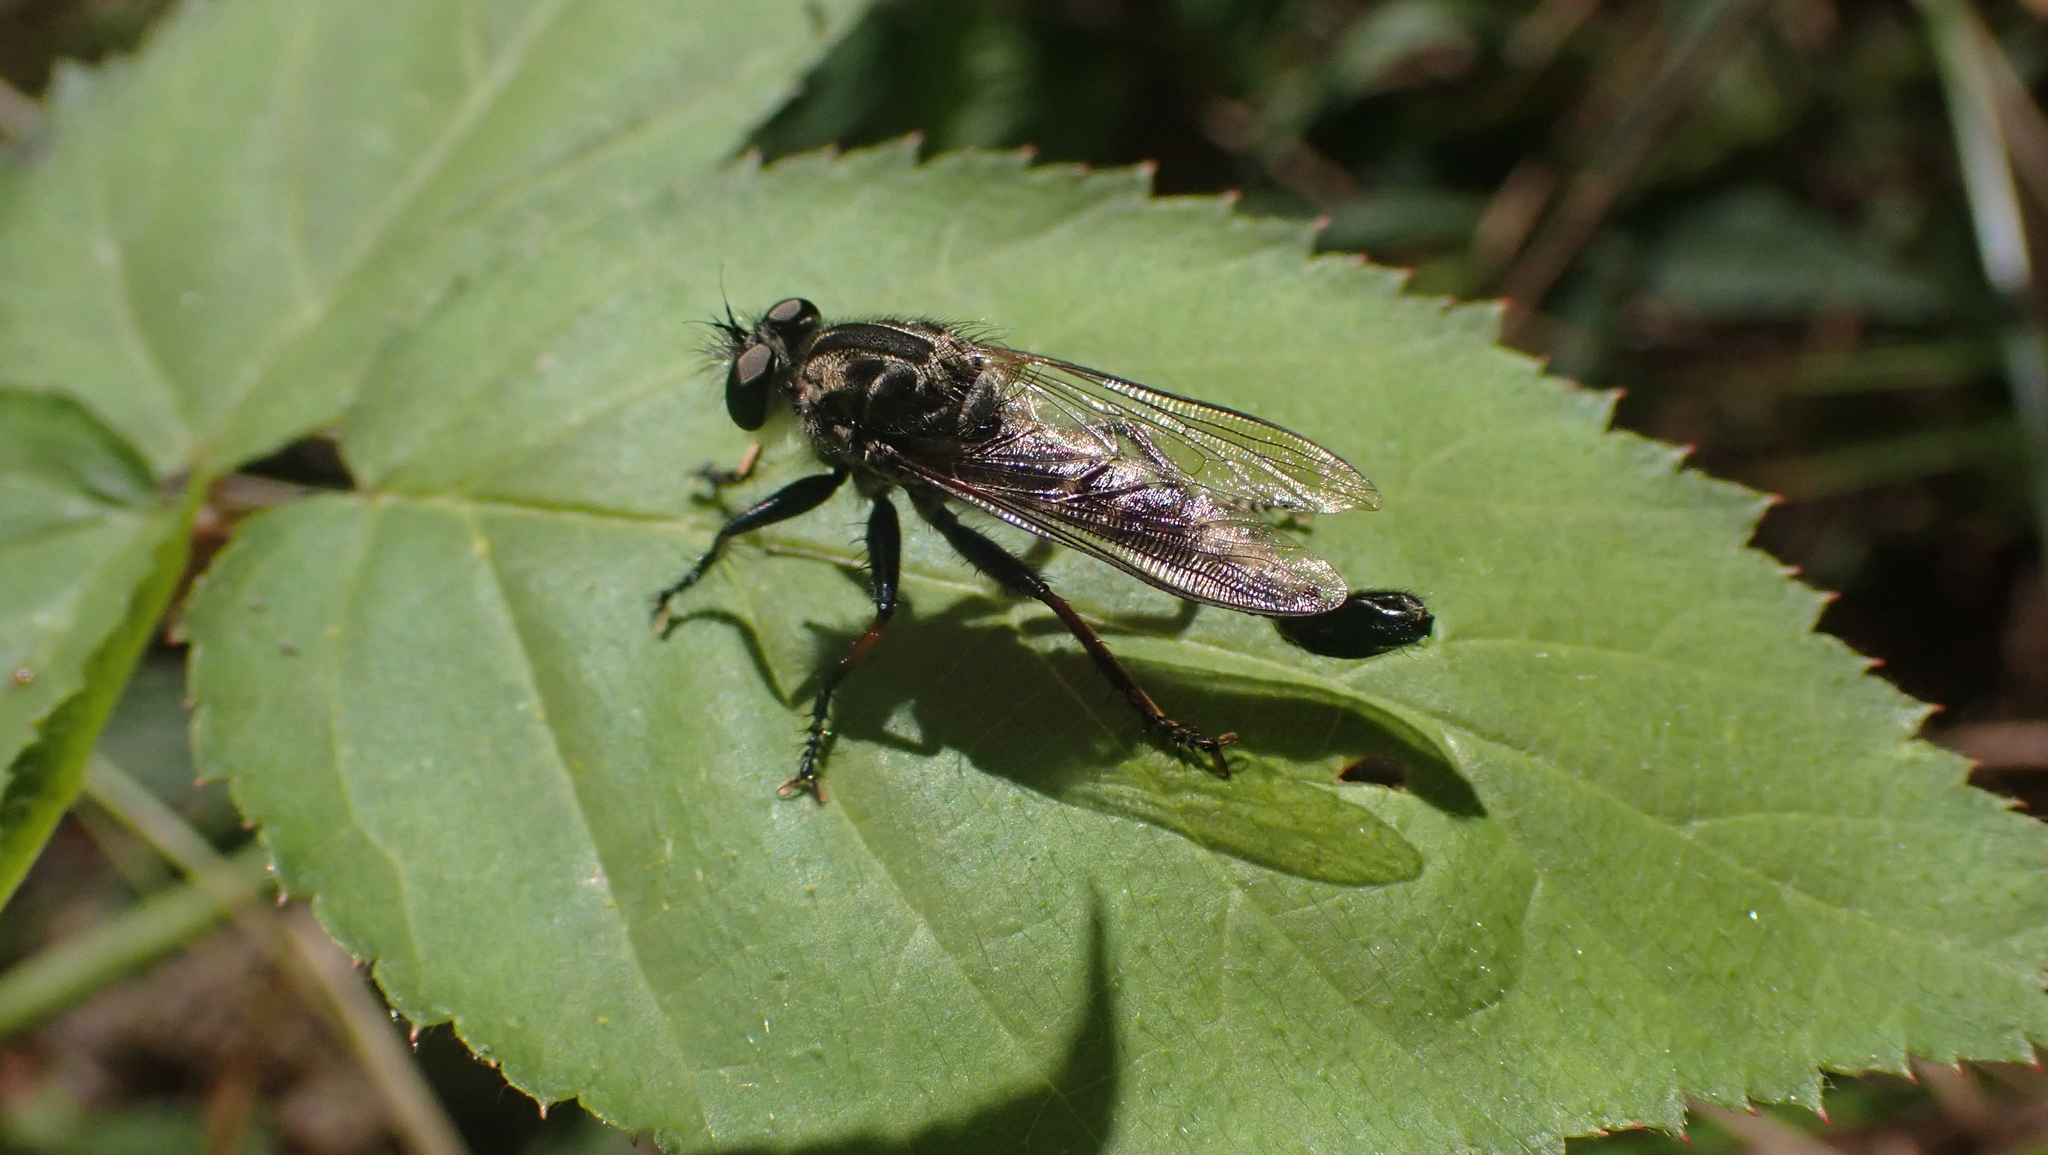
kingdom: Animalia
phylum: Arthropoda
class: Insecta
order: Diptera
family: Asilidae
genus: Efferia
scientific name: Efferia
